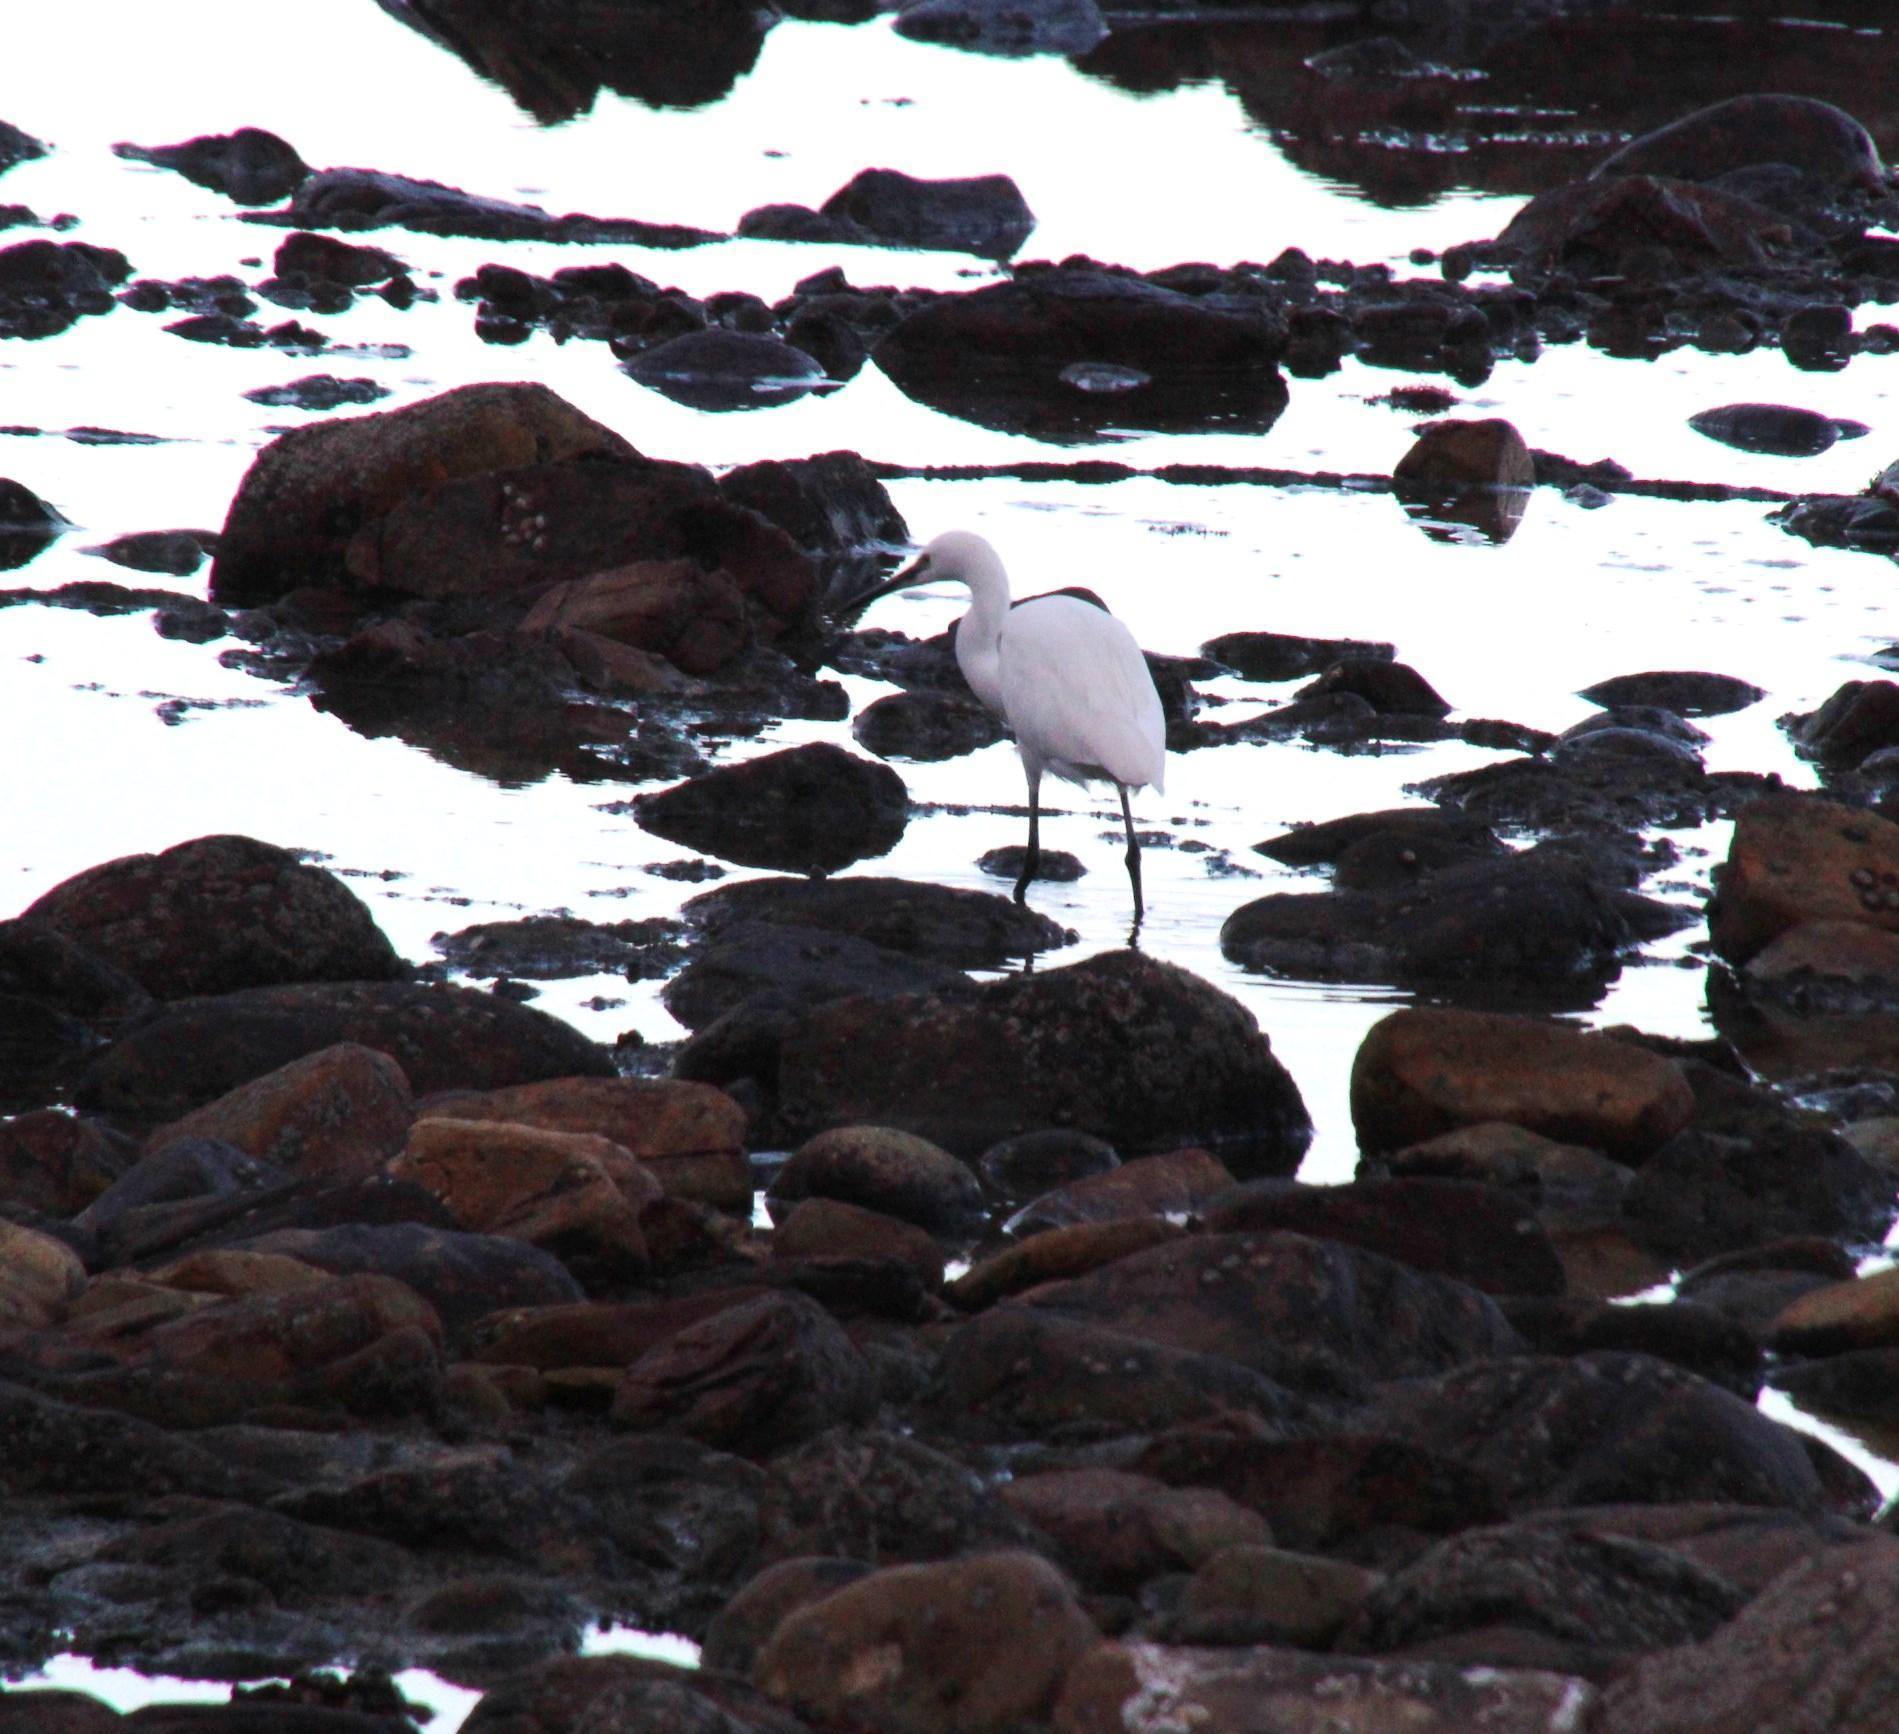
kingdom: Animalia
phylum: Chordata
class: Aves
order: Pelecaniformes
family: Ardeidae
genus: Egretta
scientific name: Egretta garzetta
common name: Little egret
